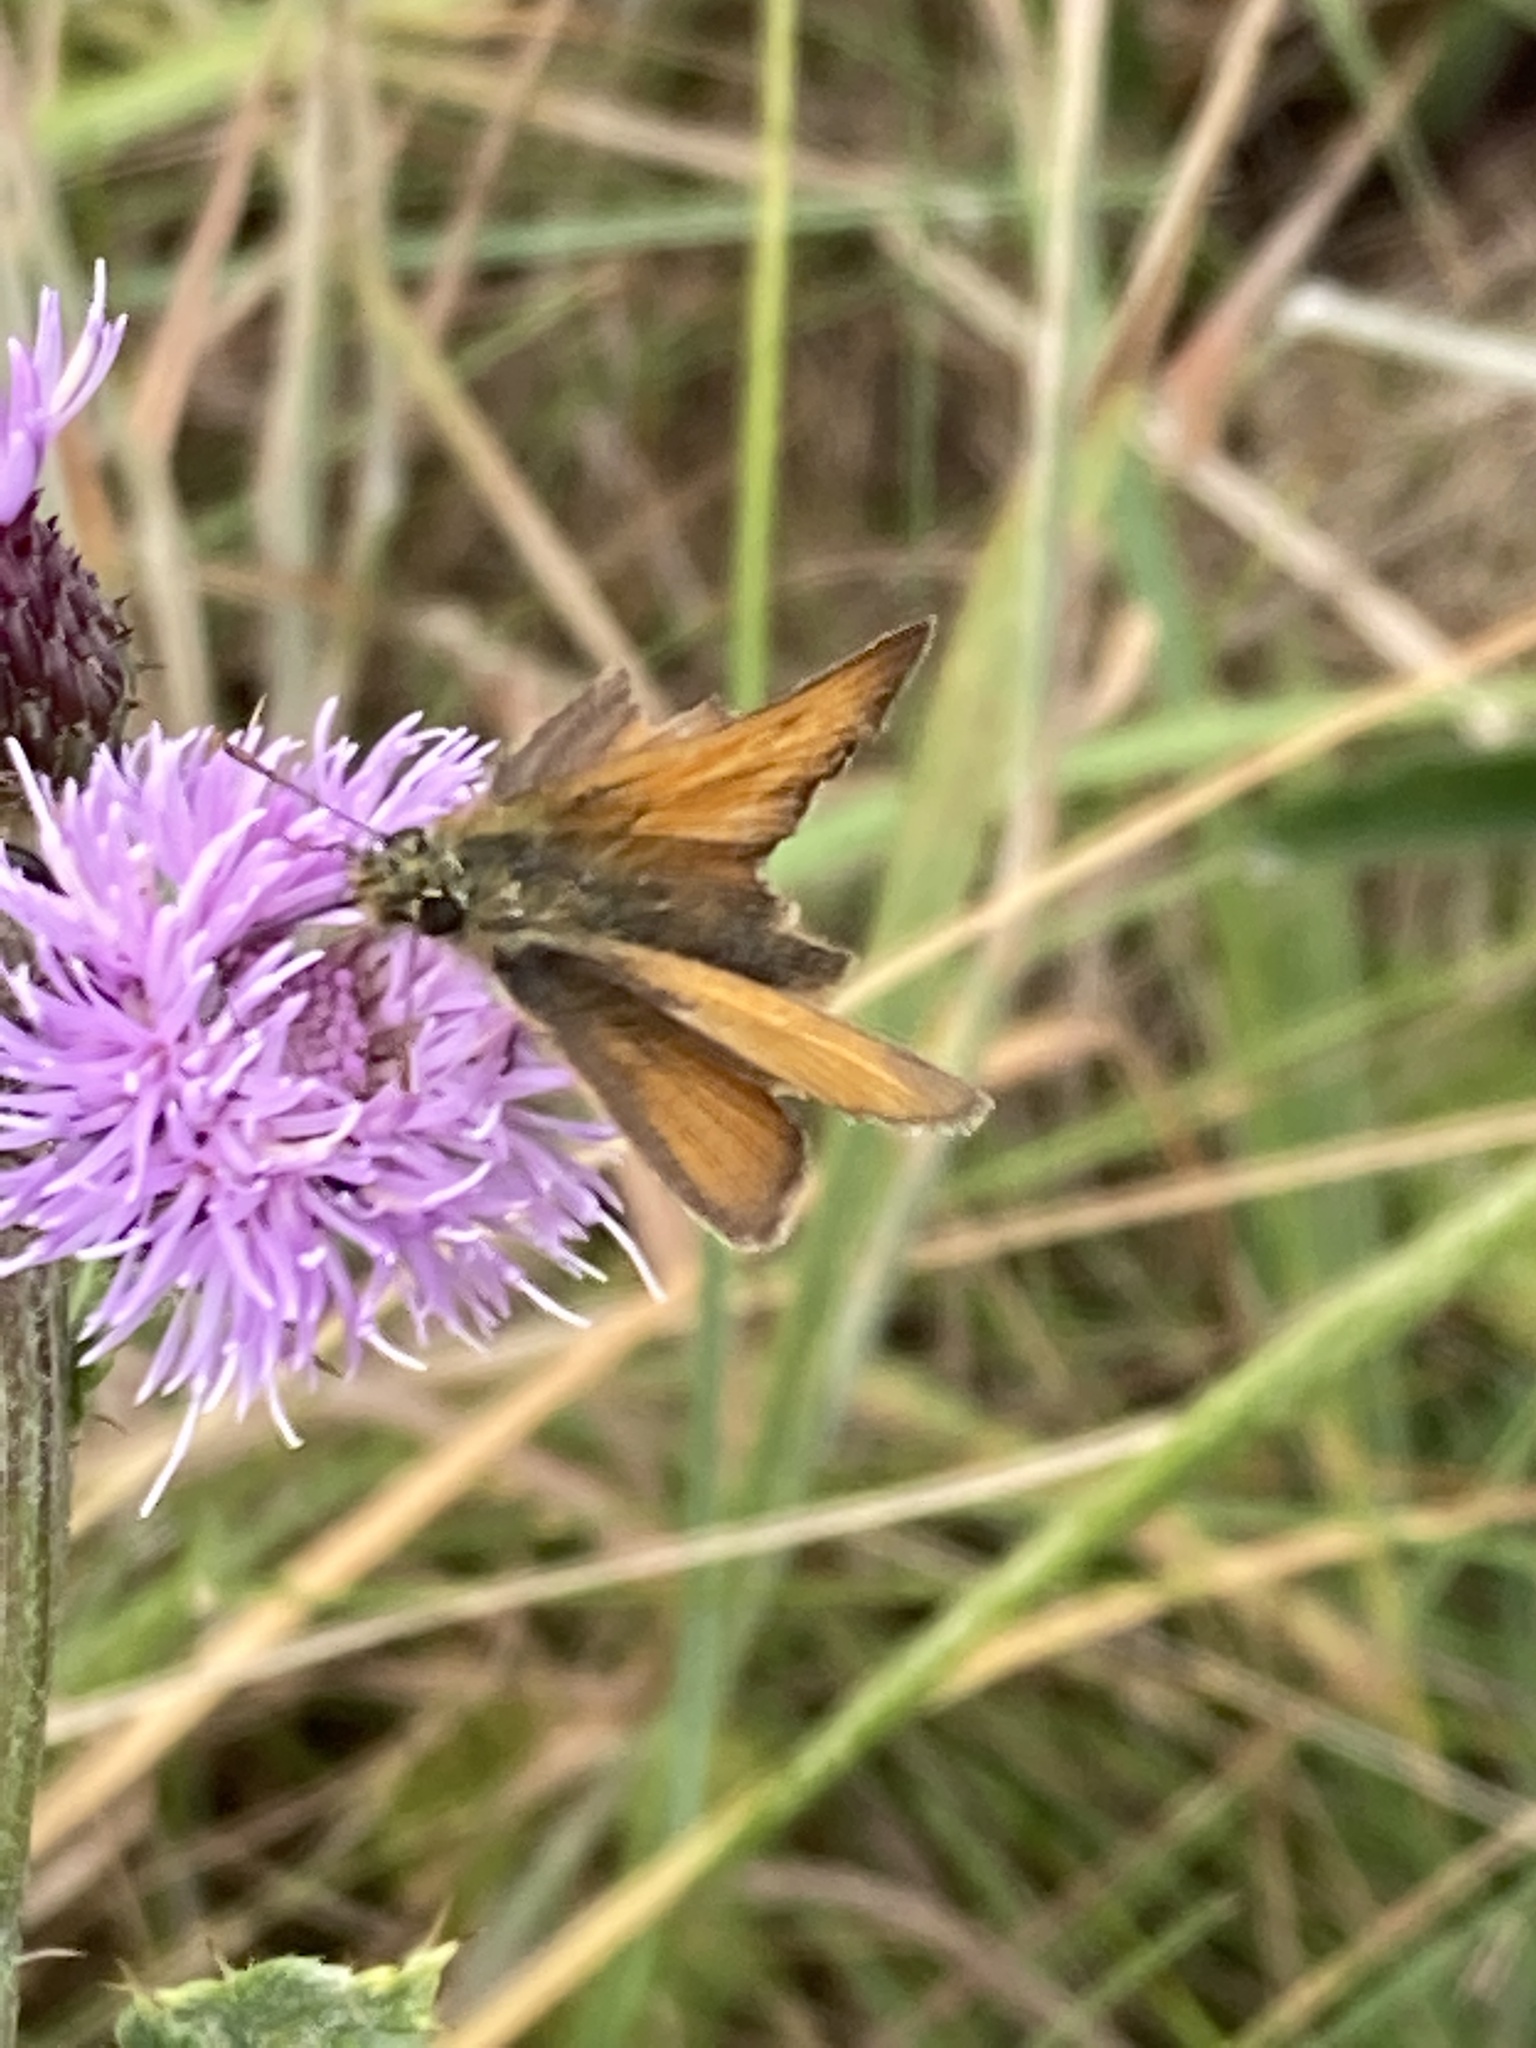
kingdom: Animalia
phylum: Arthropoda
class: Insecta
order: Lepidoptera
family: Hesperiidae
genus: Thymelicus
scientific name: Thymelicus sylvestris
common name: Small skipper
